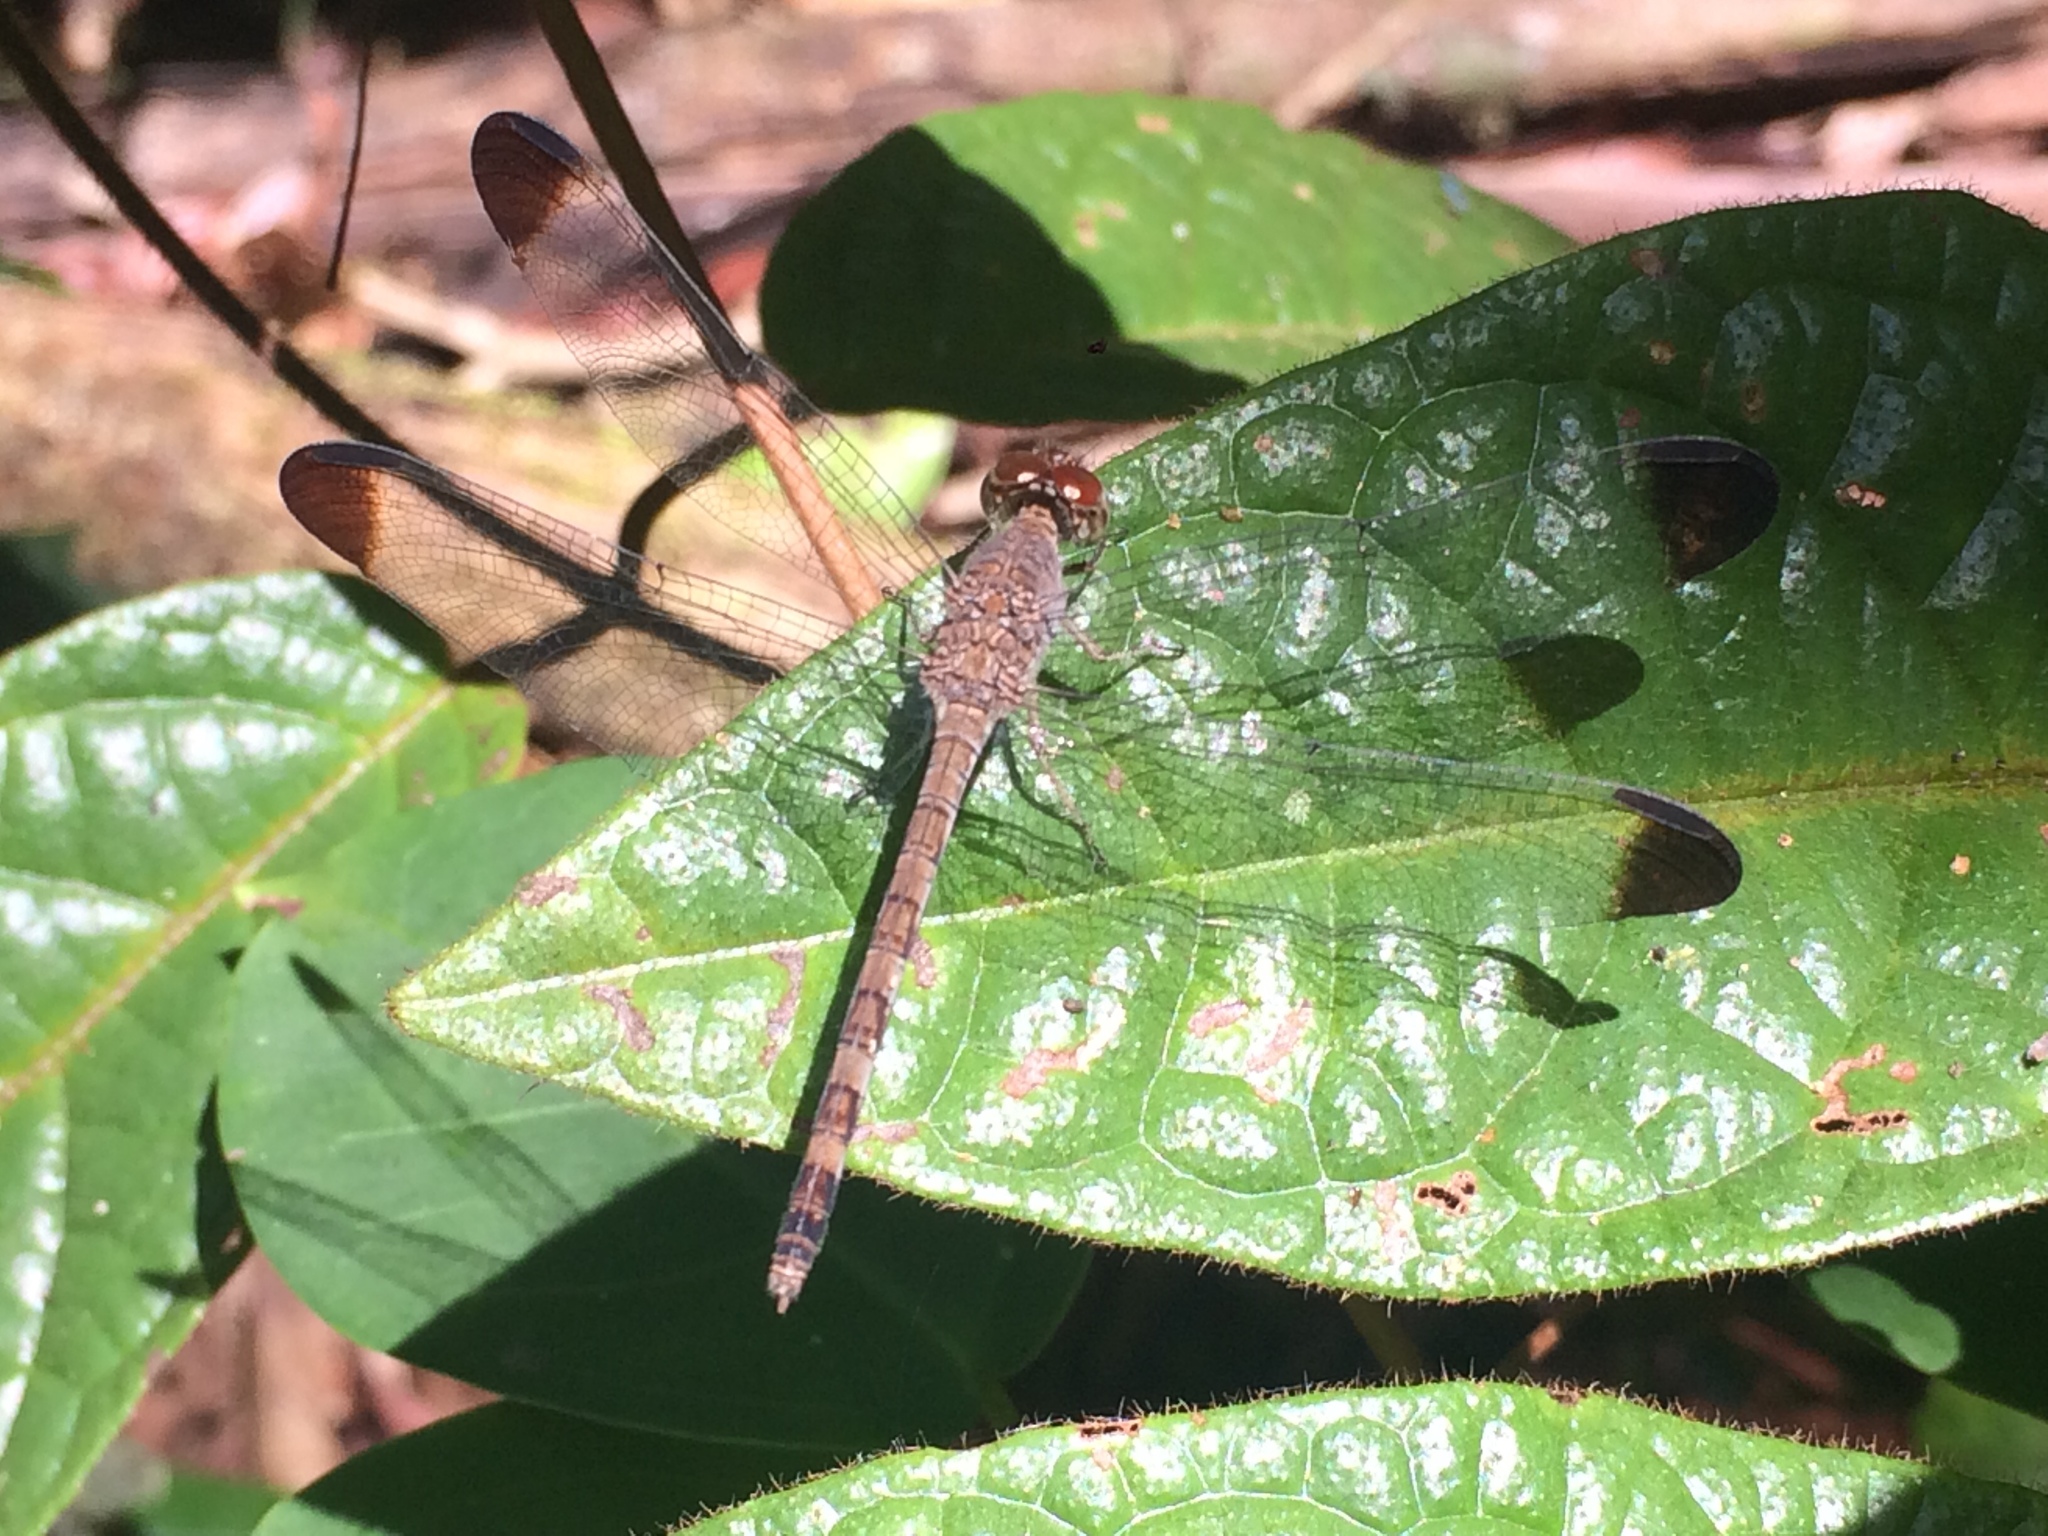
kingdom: Animalia
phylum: Arthropoda
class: Insecta
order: Odonata
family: Libellulidae
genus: Uracis
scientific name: Uracis imbuta
